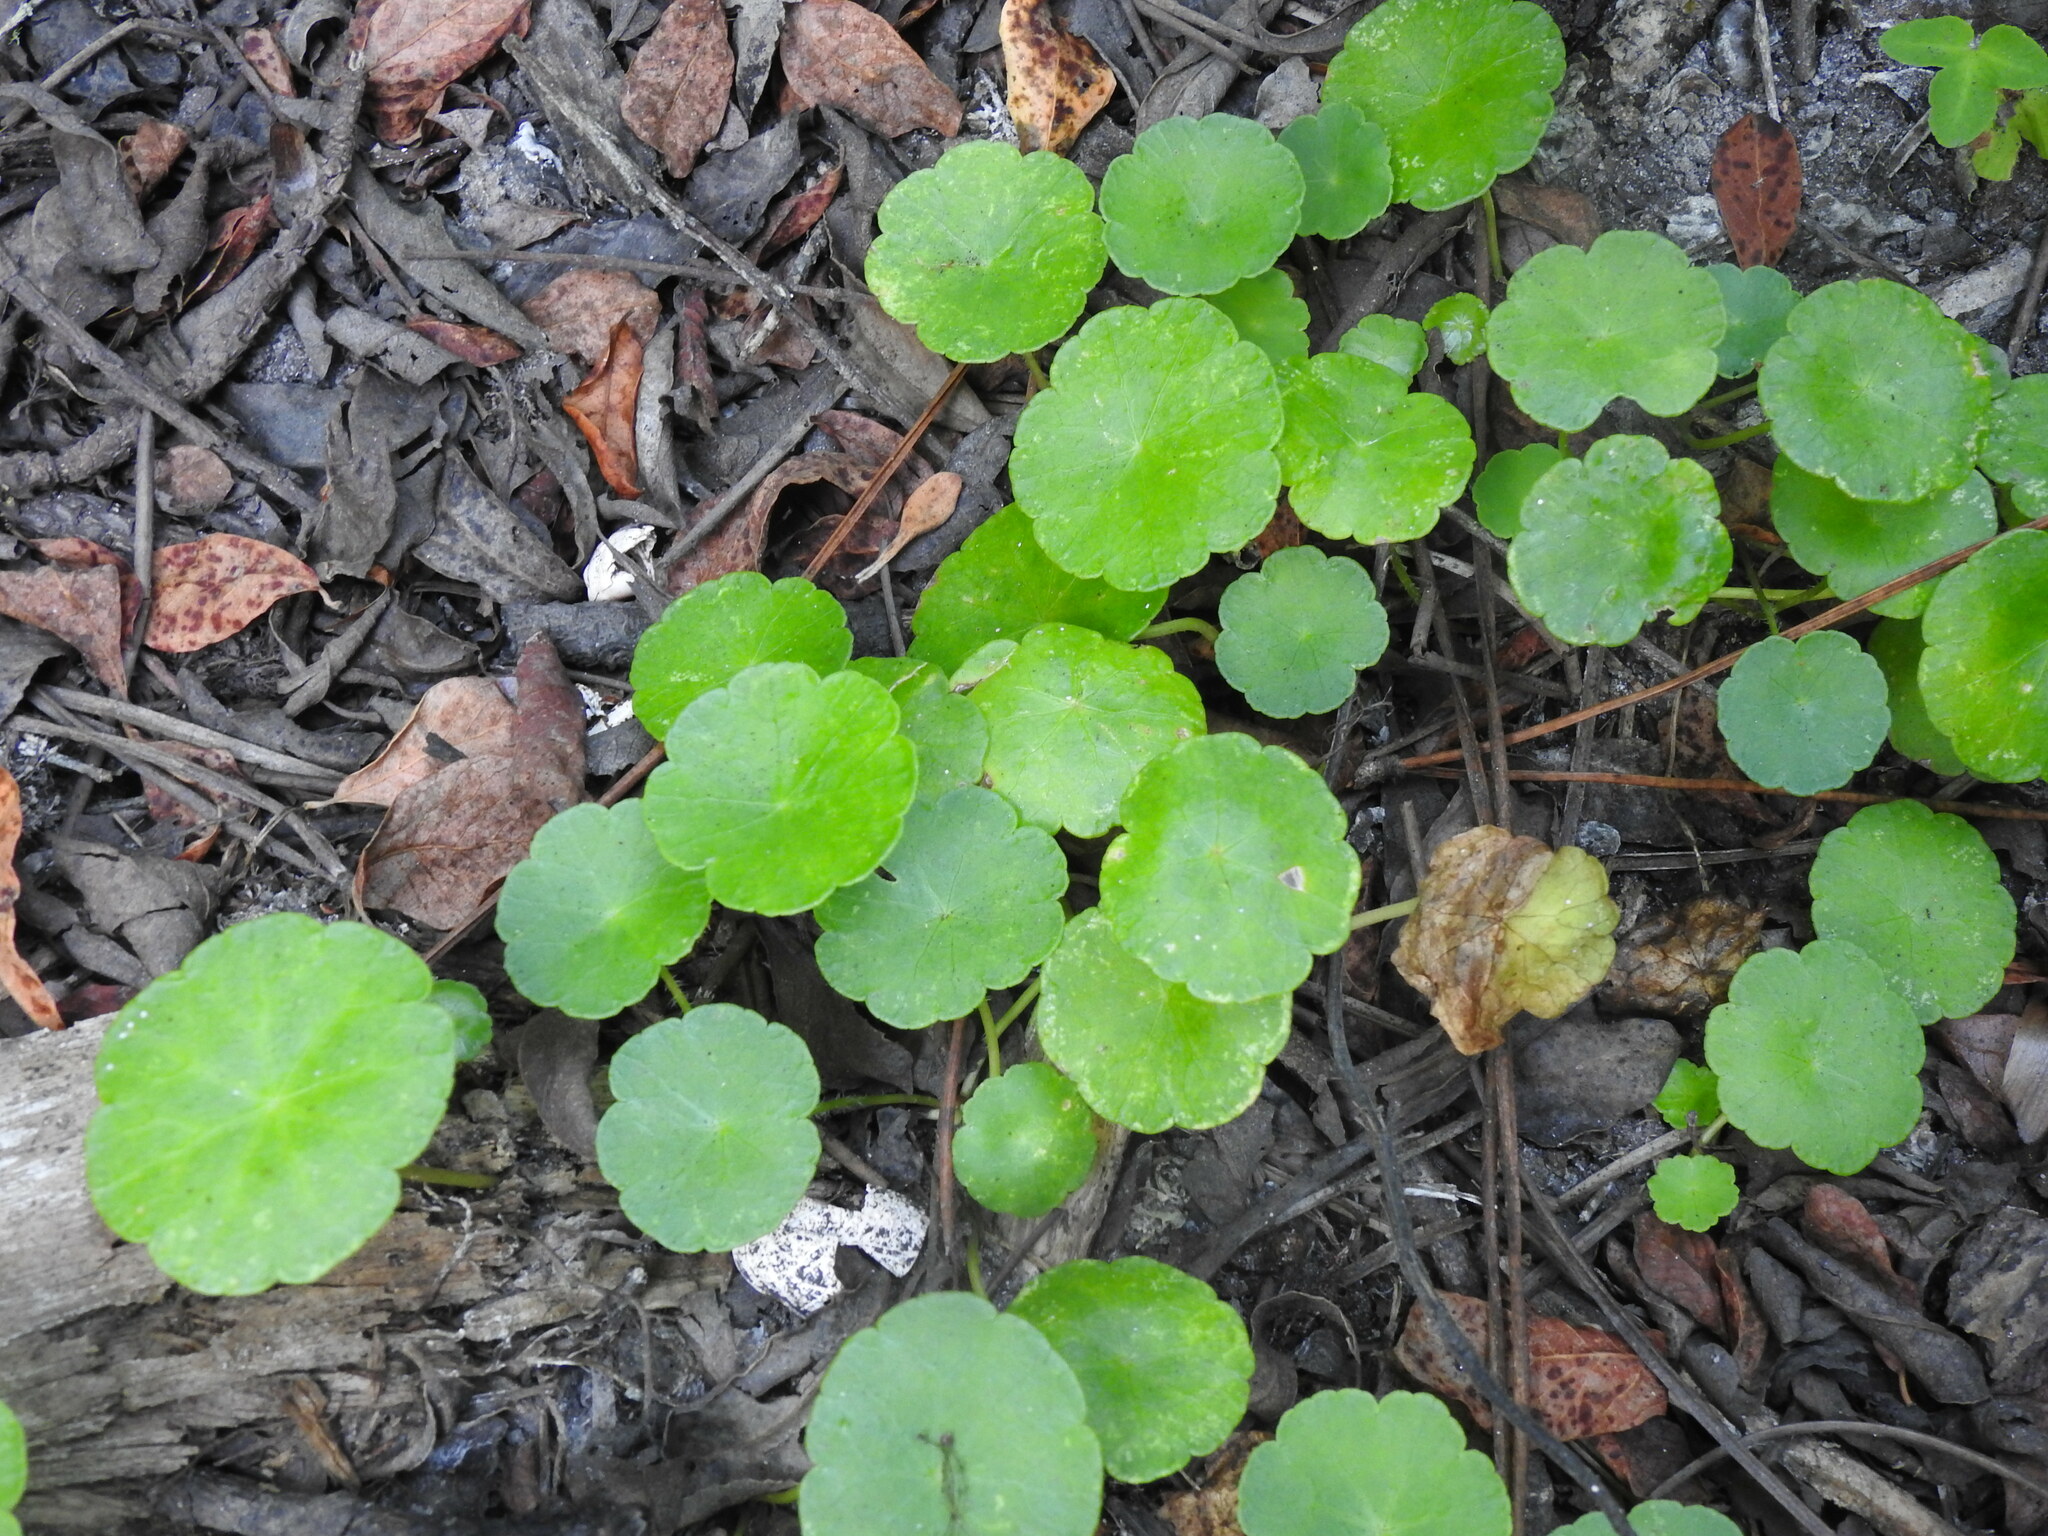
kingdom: Plantae
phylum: Tracheophyta
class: Magnoliopsida
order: Apiales
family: Araliaceae
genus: Hydrocotyle
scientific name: Hydrocotyle vulgaris
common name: Marsh pennywort
